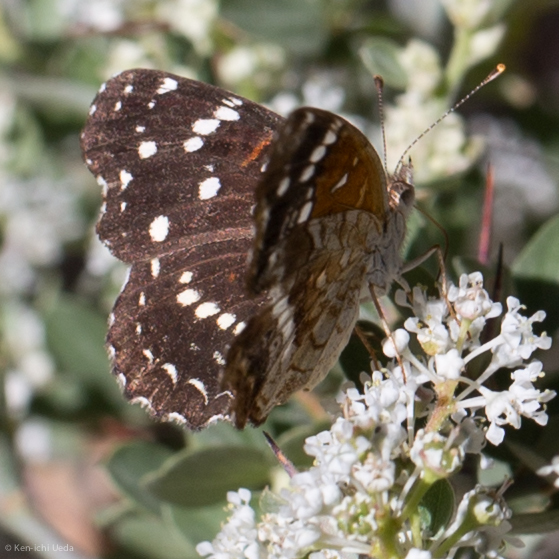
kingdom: Animalia
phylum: Arthropoda
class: Insecta
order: Lepidoptera
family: Nymphalidae
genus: Anthanassa
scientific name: Anthanassa texana
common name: Texan crescent
